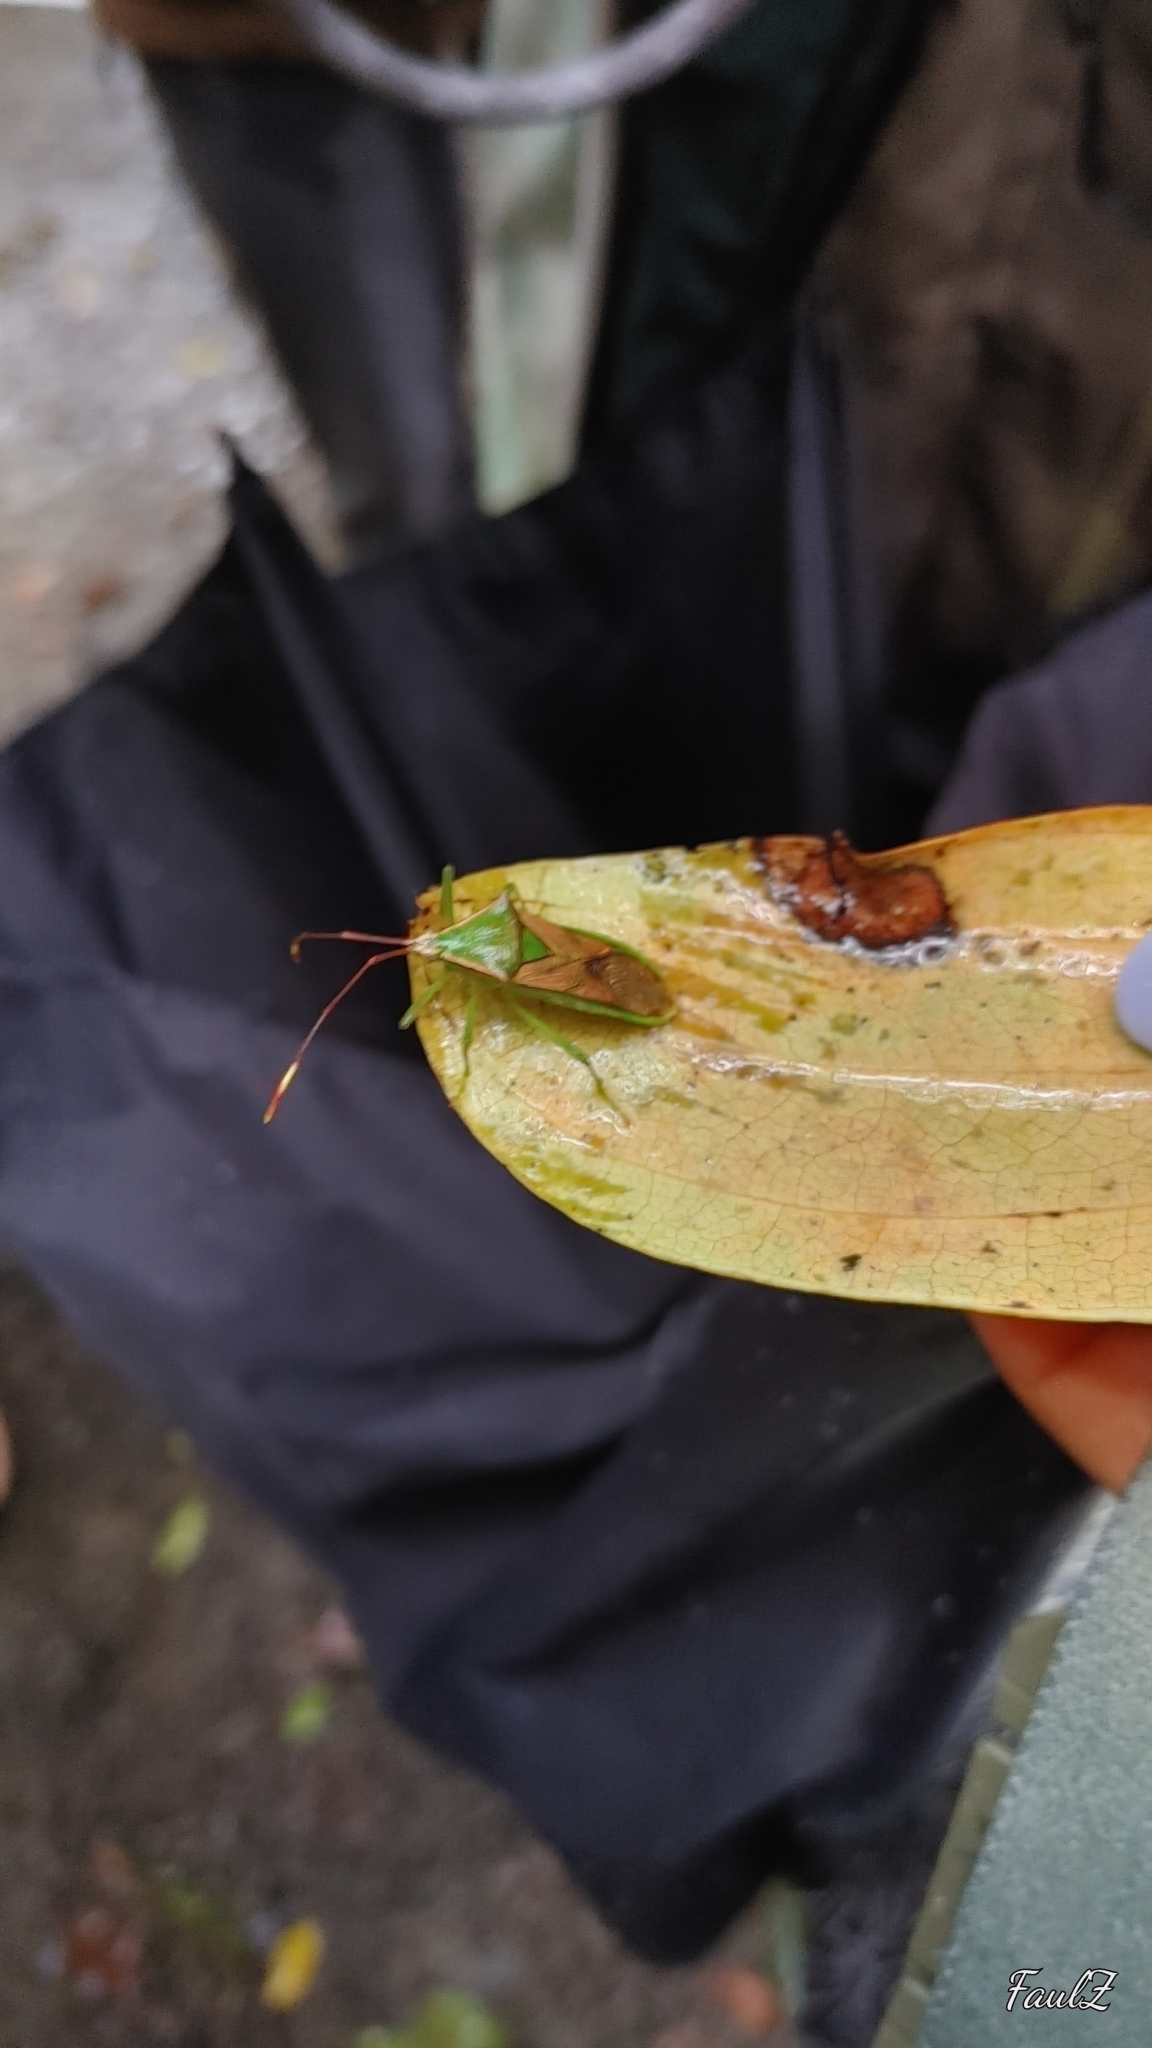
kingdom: Animalia
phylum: Arthropoda
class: Insecta
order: Hemiptera
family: Coreidae
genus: Homoeocerus
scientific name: Homoeocerus striicornis
